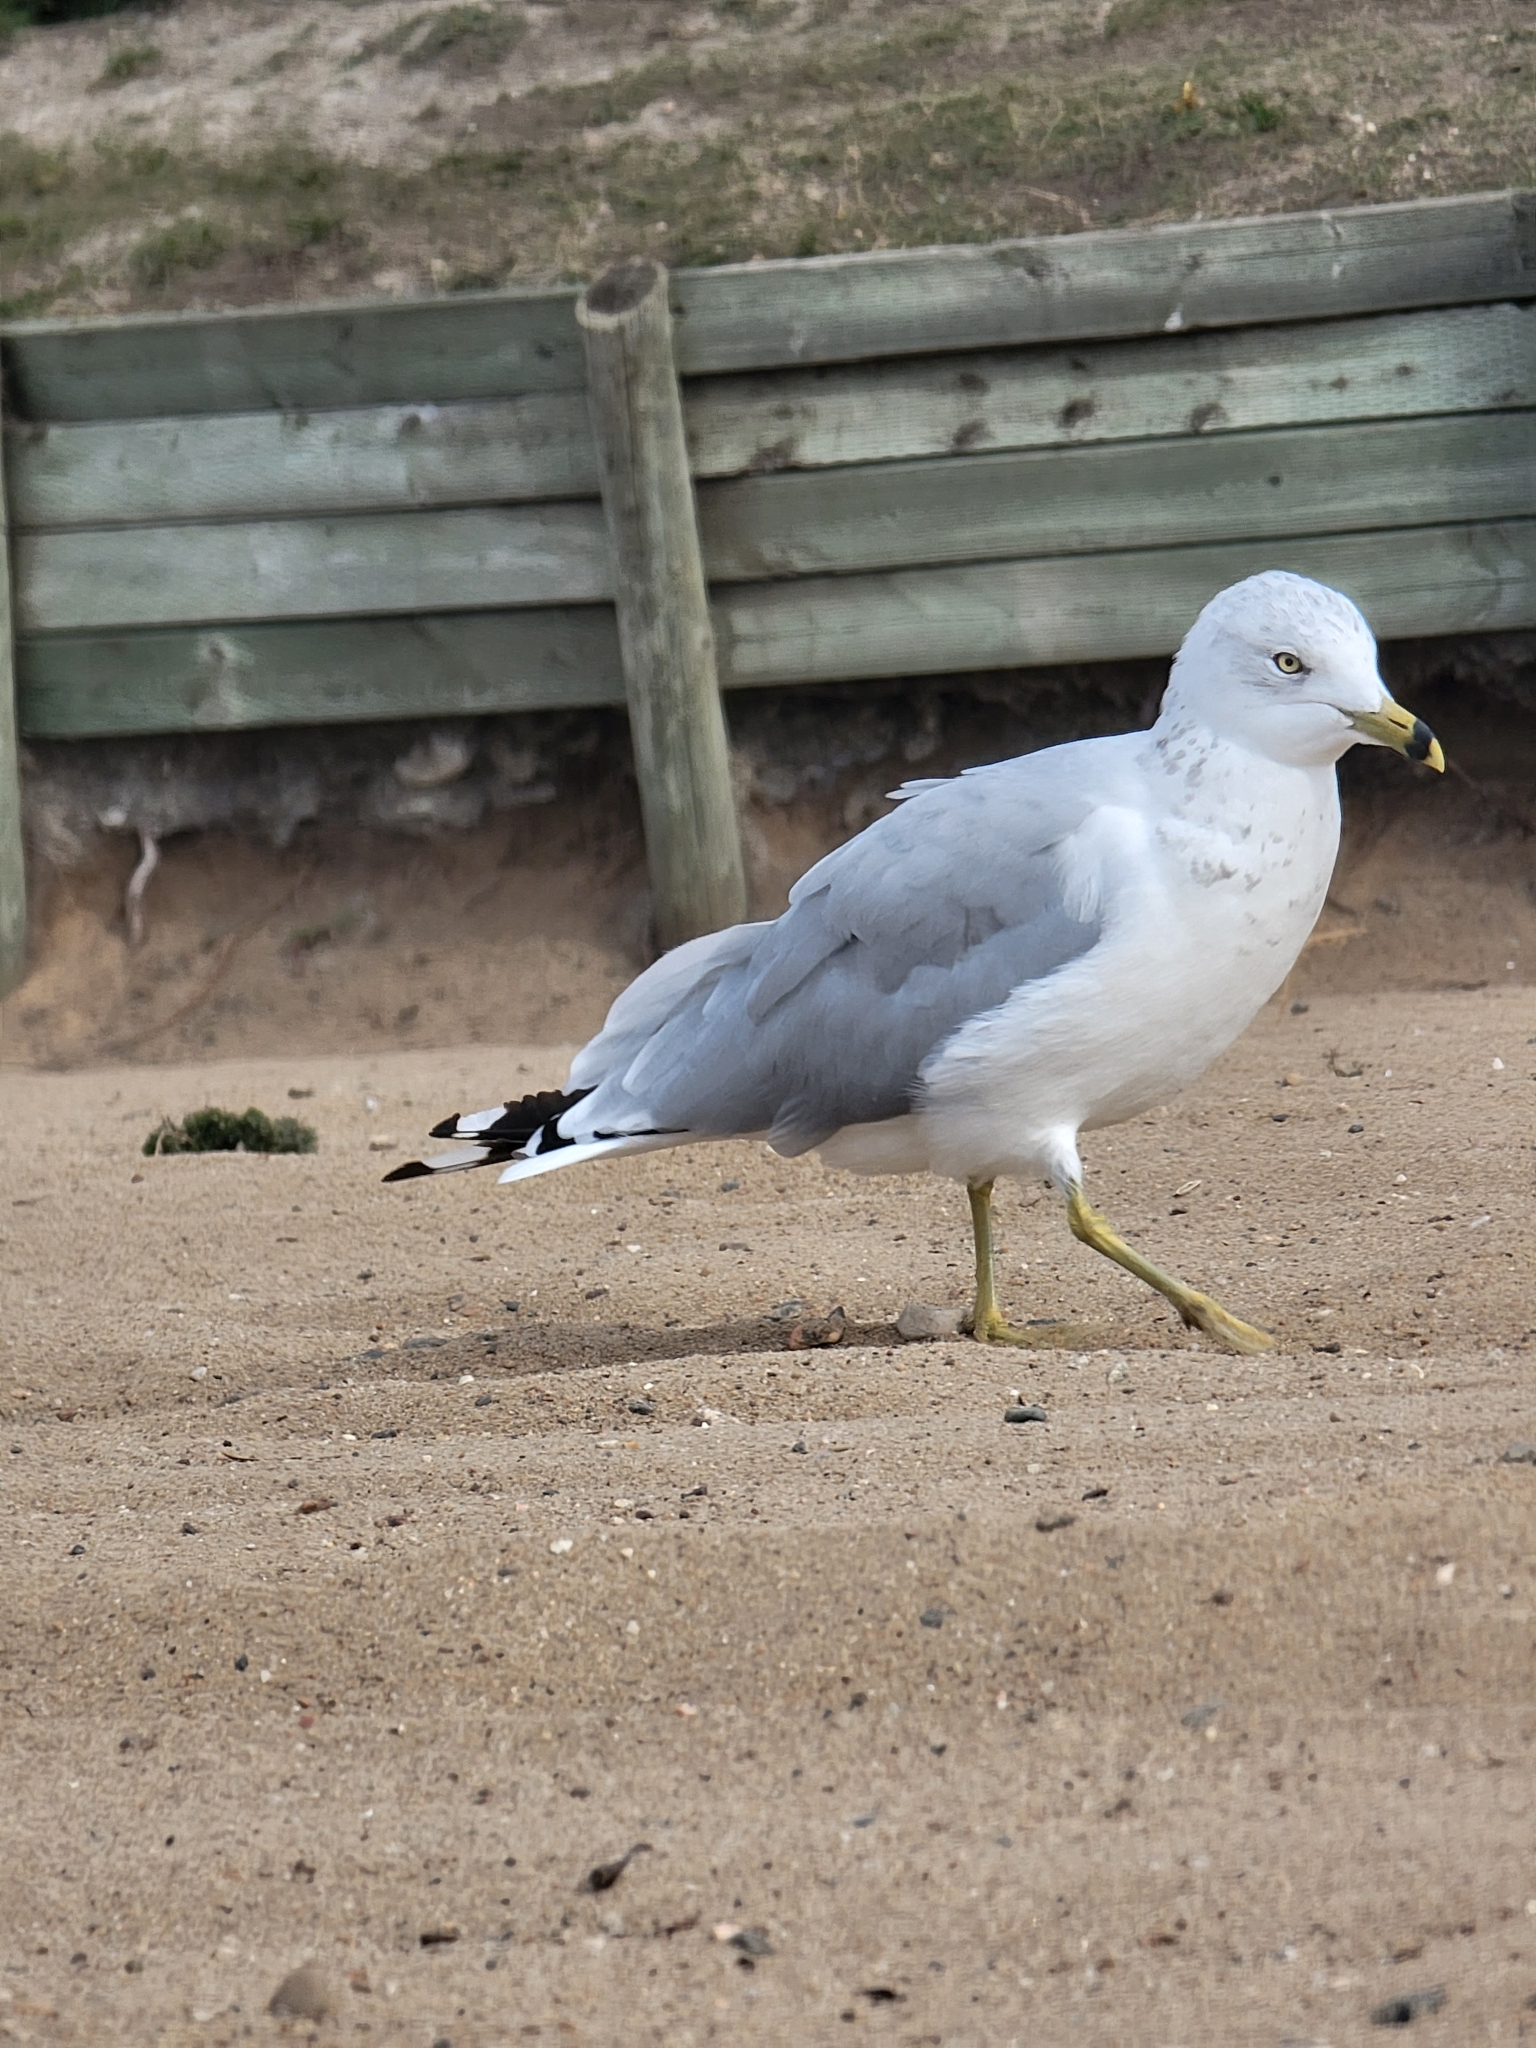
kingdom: Animalia
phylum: Chordata
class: Aves
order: Charadriiformes
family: Laridae
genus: Larus
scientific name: Larus delawarensis
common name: Ring-billed gull
